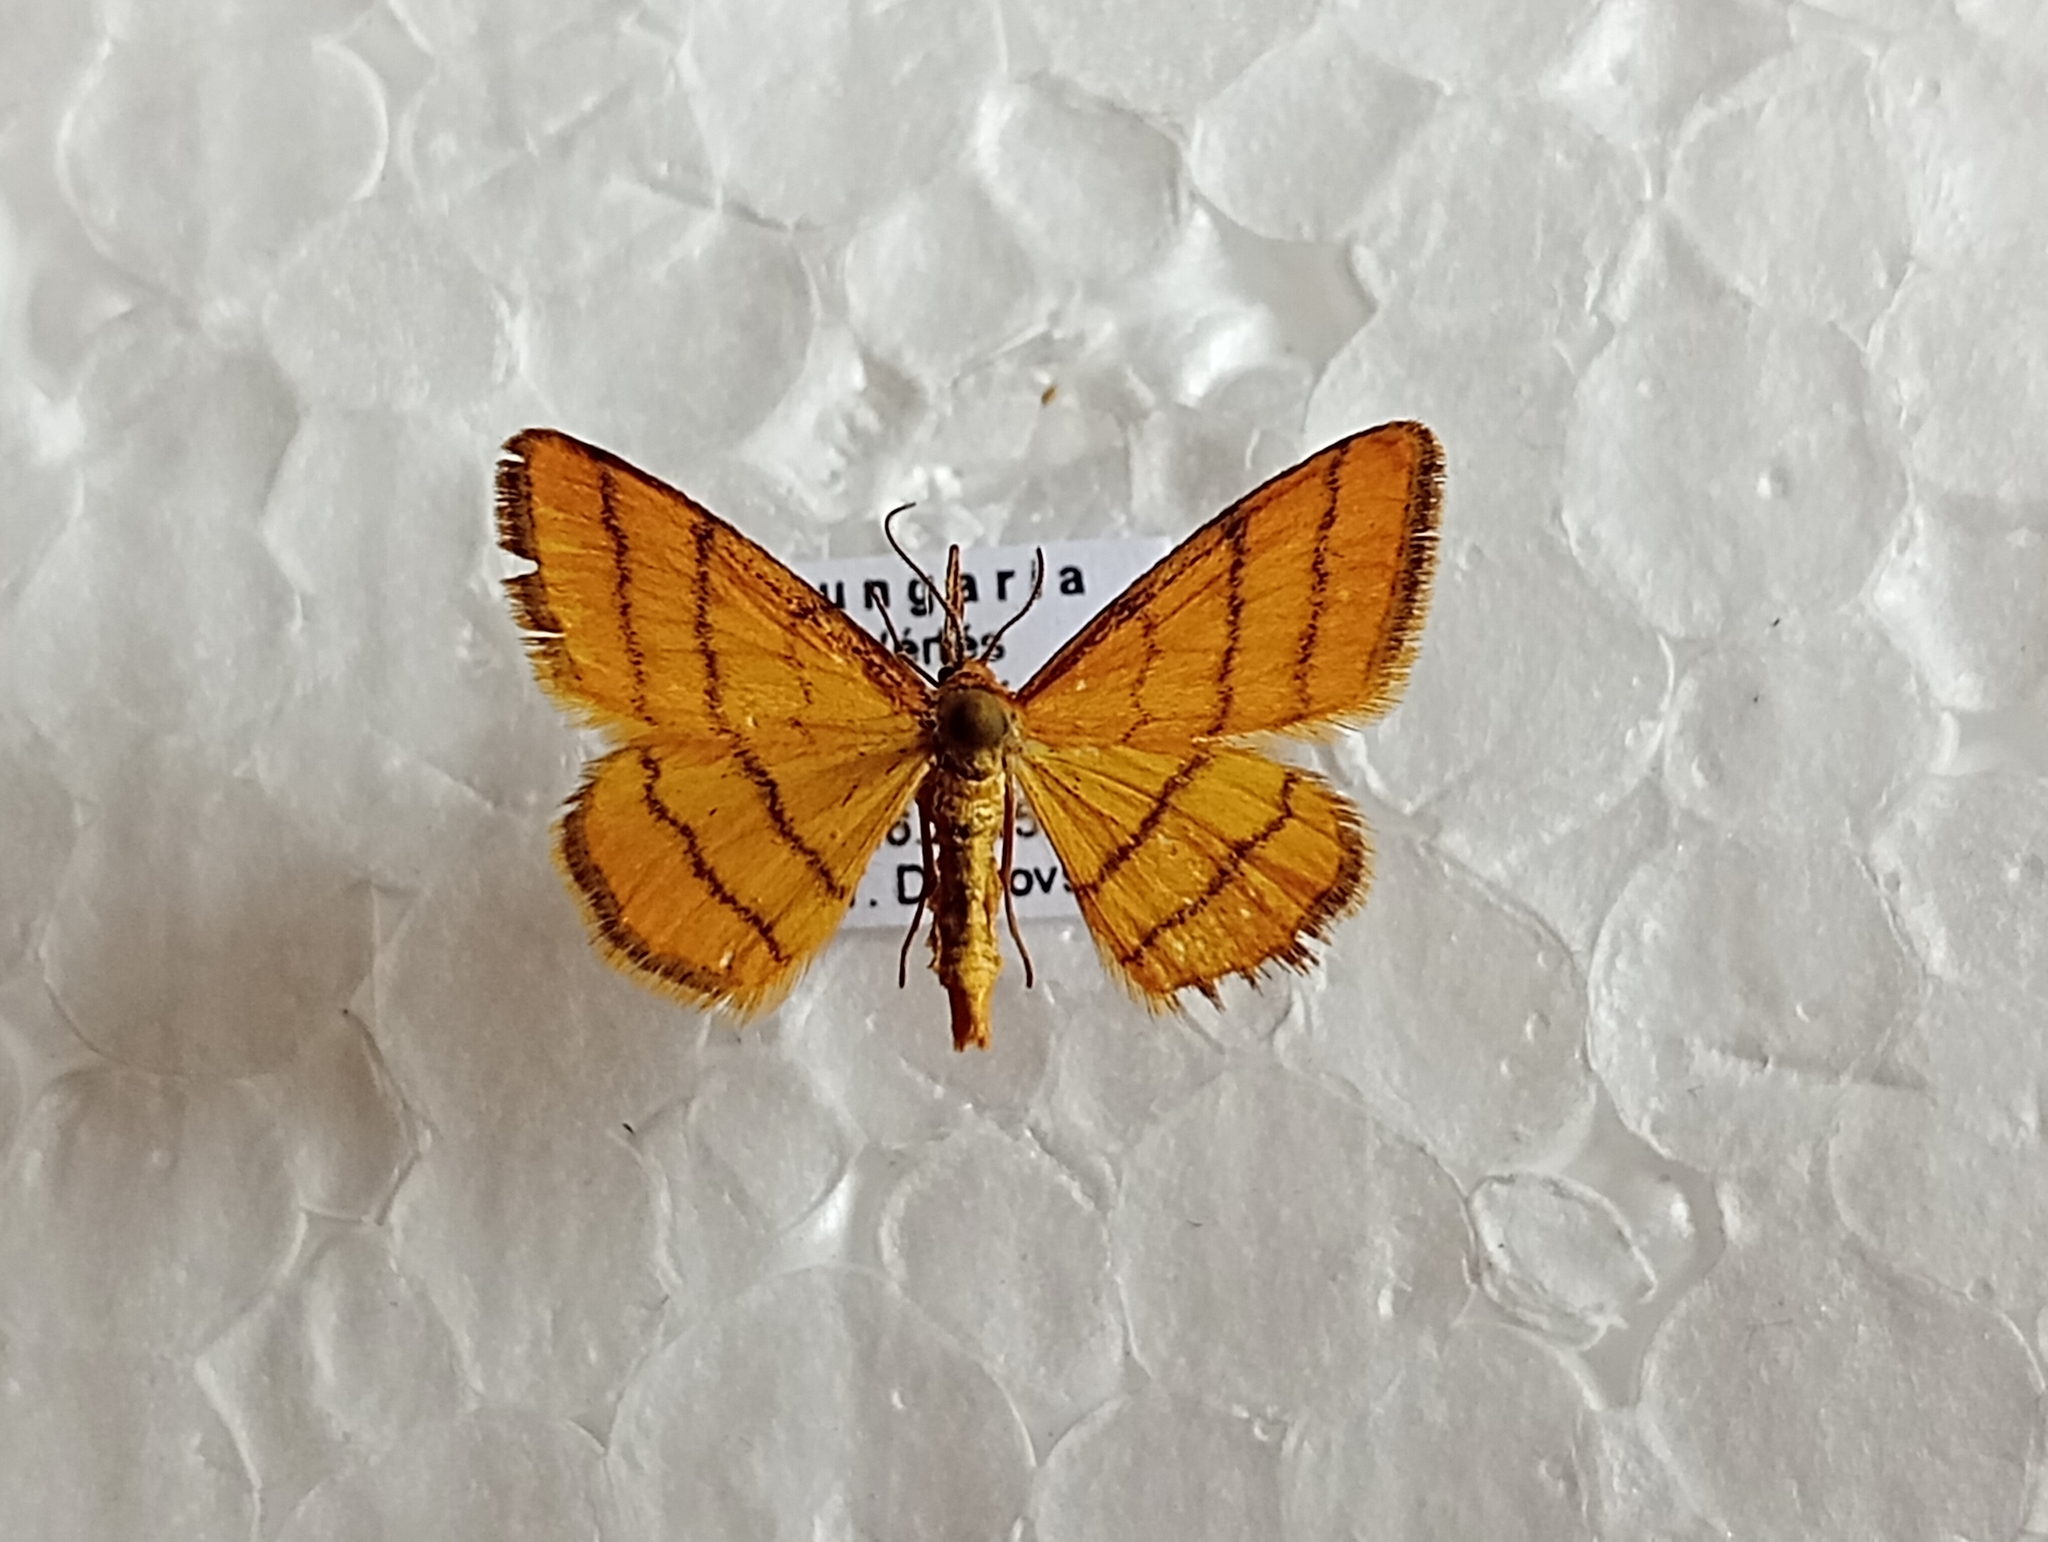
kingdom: Animalia
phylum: Arthropoda
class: Insecta
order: Lepidoptera
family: Geometridae
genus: Idaea
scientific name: Idaea aureolaria
